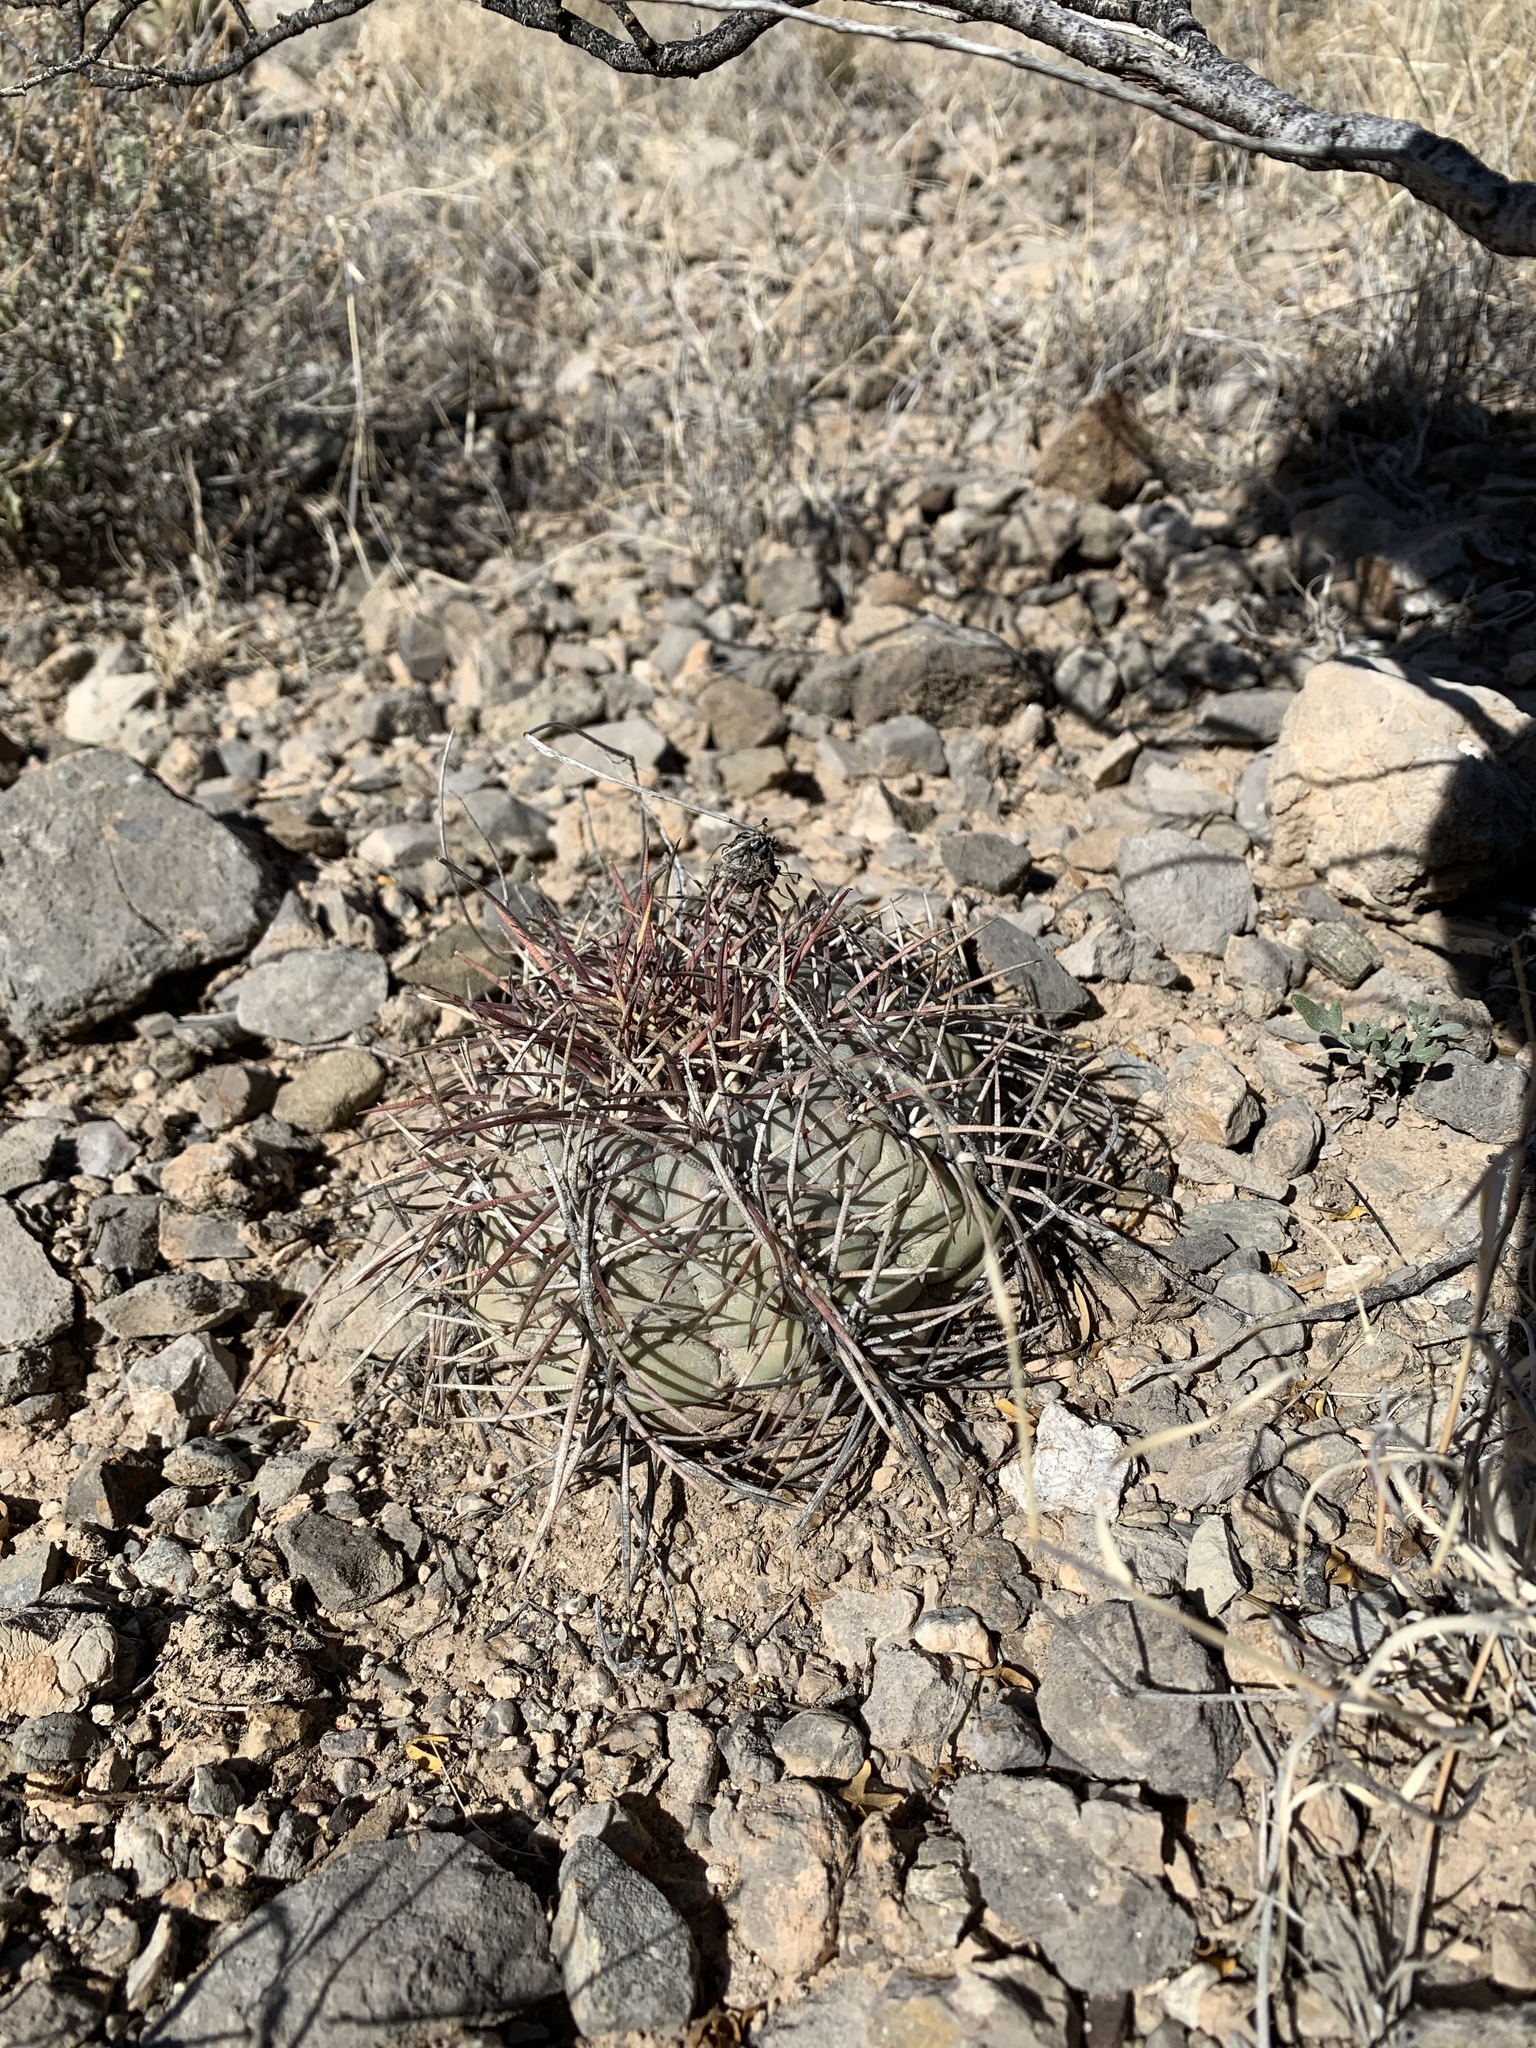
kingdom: Plantae
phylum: Tracheophyta
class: Magnoliopsida
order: Caryophyllales
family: Cactaceae
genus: Echinocactus
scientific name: Echinocactus horizonthalonius
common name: Devilshead
